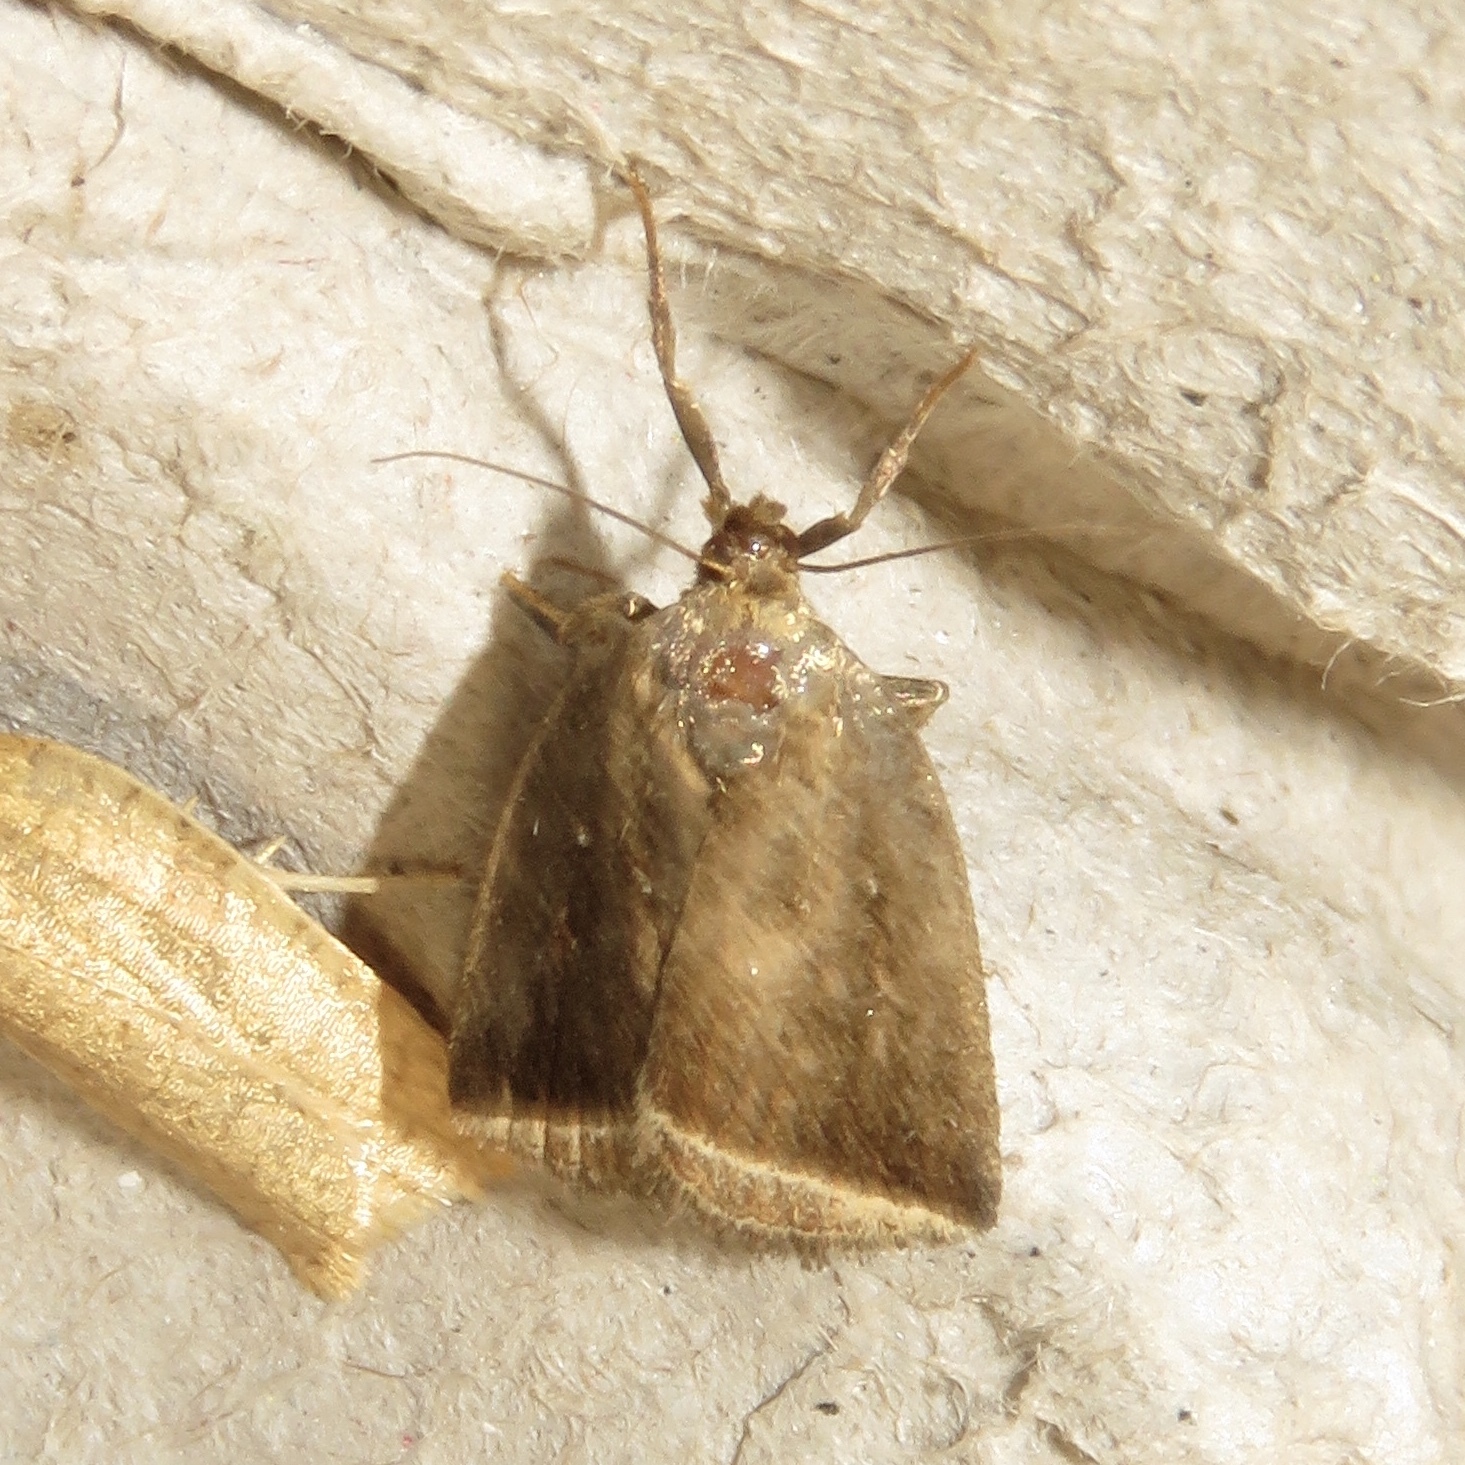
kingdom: Animalia
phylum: Arthropoda
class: Insecta
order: Lepidoptera
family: Erebidae
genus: Capis
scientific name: Capis curvata
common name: Curved halter moth
